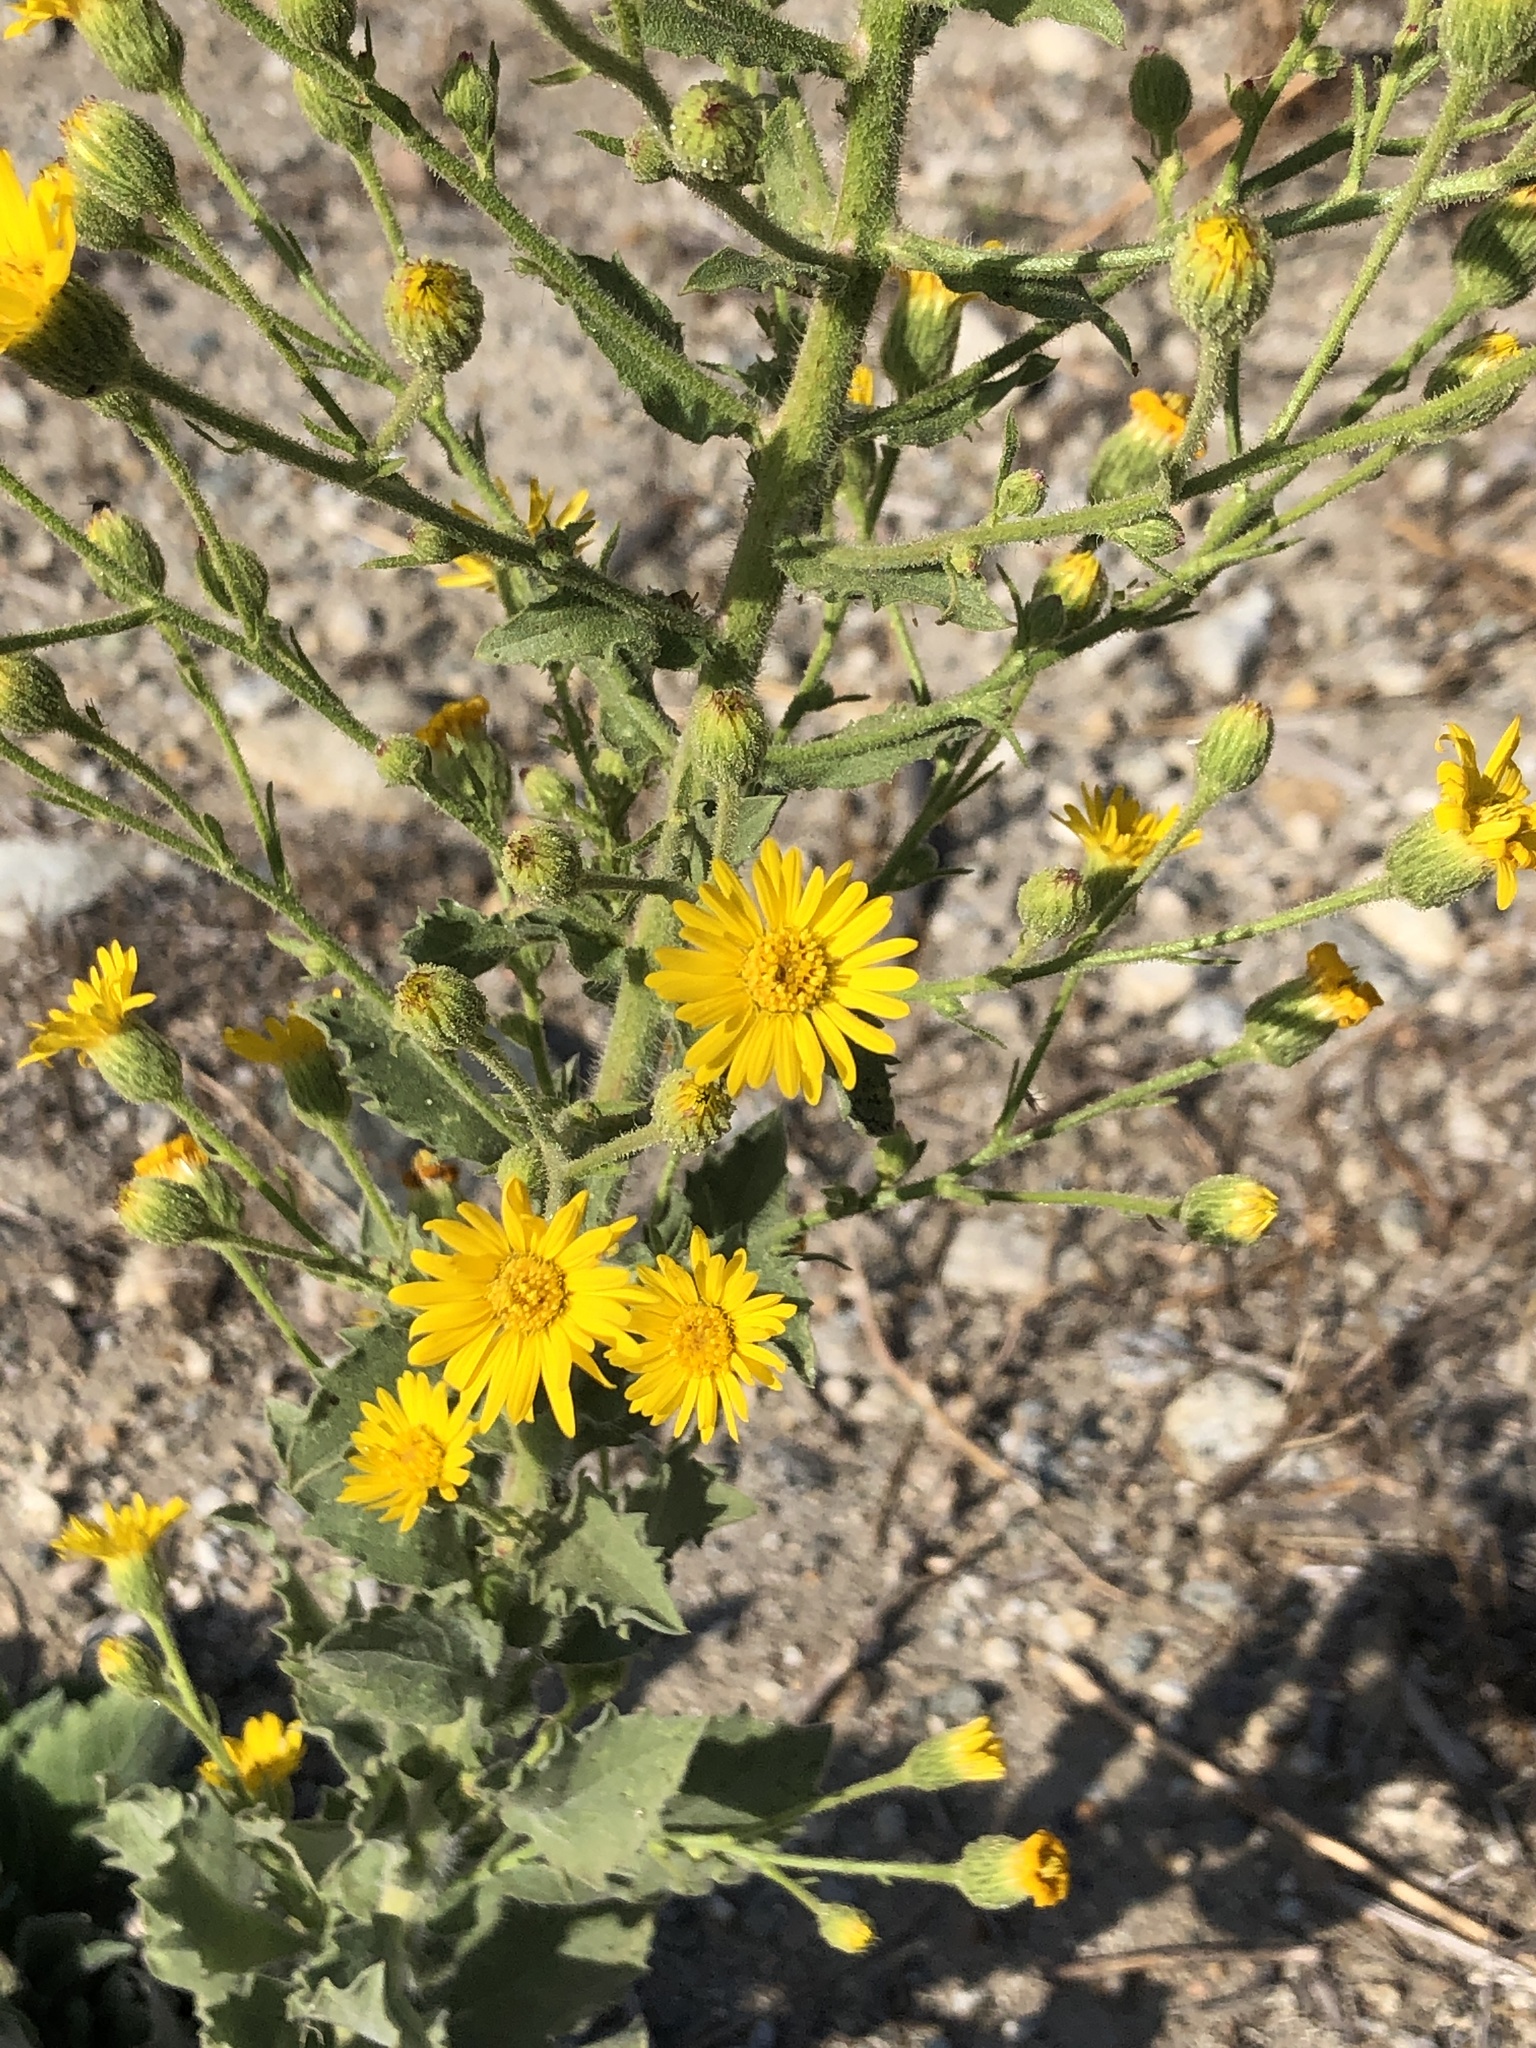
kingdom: Plantae
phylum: Tracheophyta
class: Magnoliopsida
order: Asterales
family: Asteraceae
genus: Heterotheca
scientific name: Heterotheca grandiflora
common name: Telegraphweed
